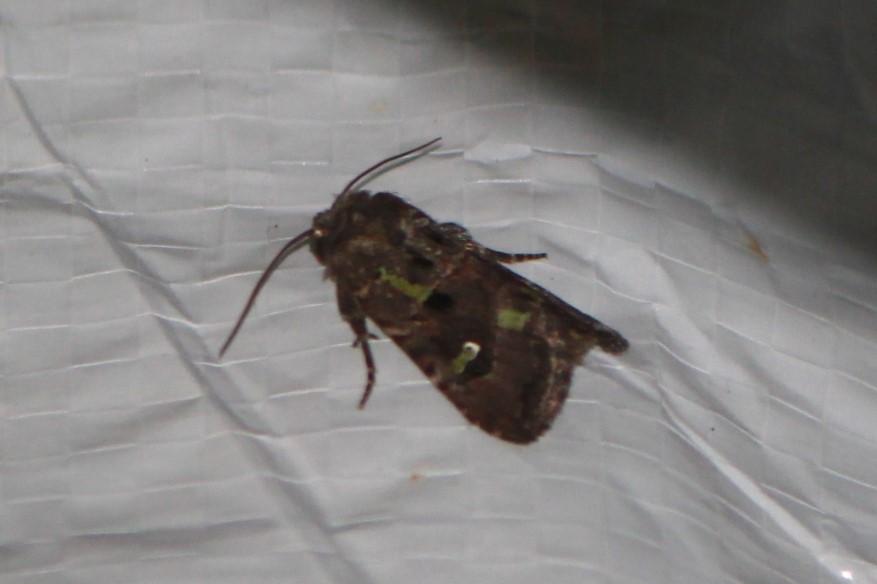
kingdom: Animalia
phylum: Arthropoda
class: Insecta
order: Lepidoptera
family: Noctuidae
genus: Lacinipolia
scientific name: Lacinipolia renigera
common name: Kidney-spotted minor
